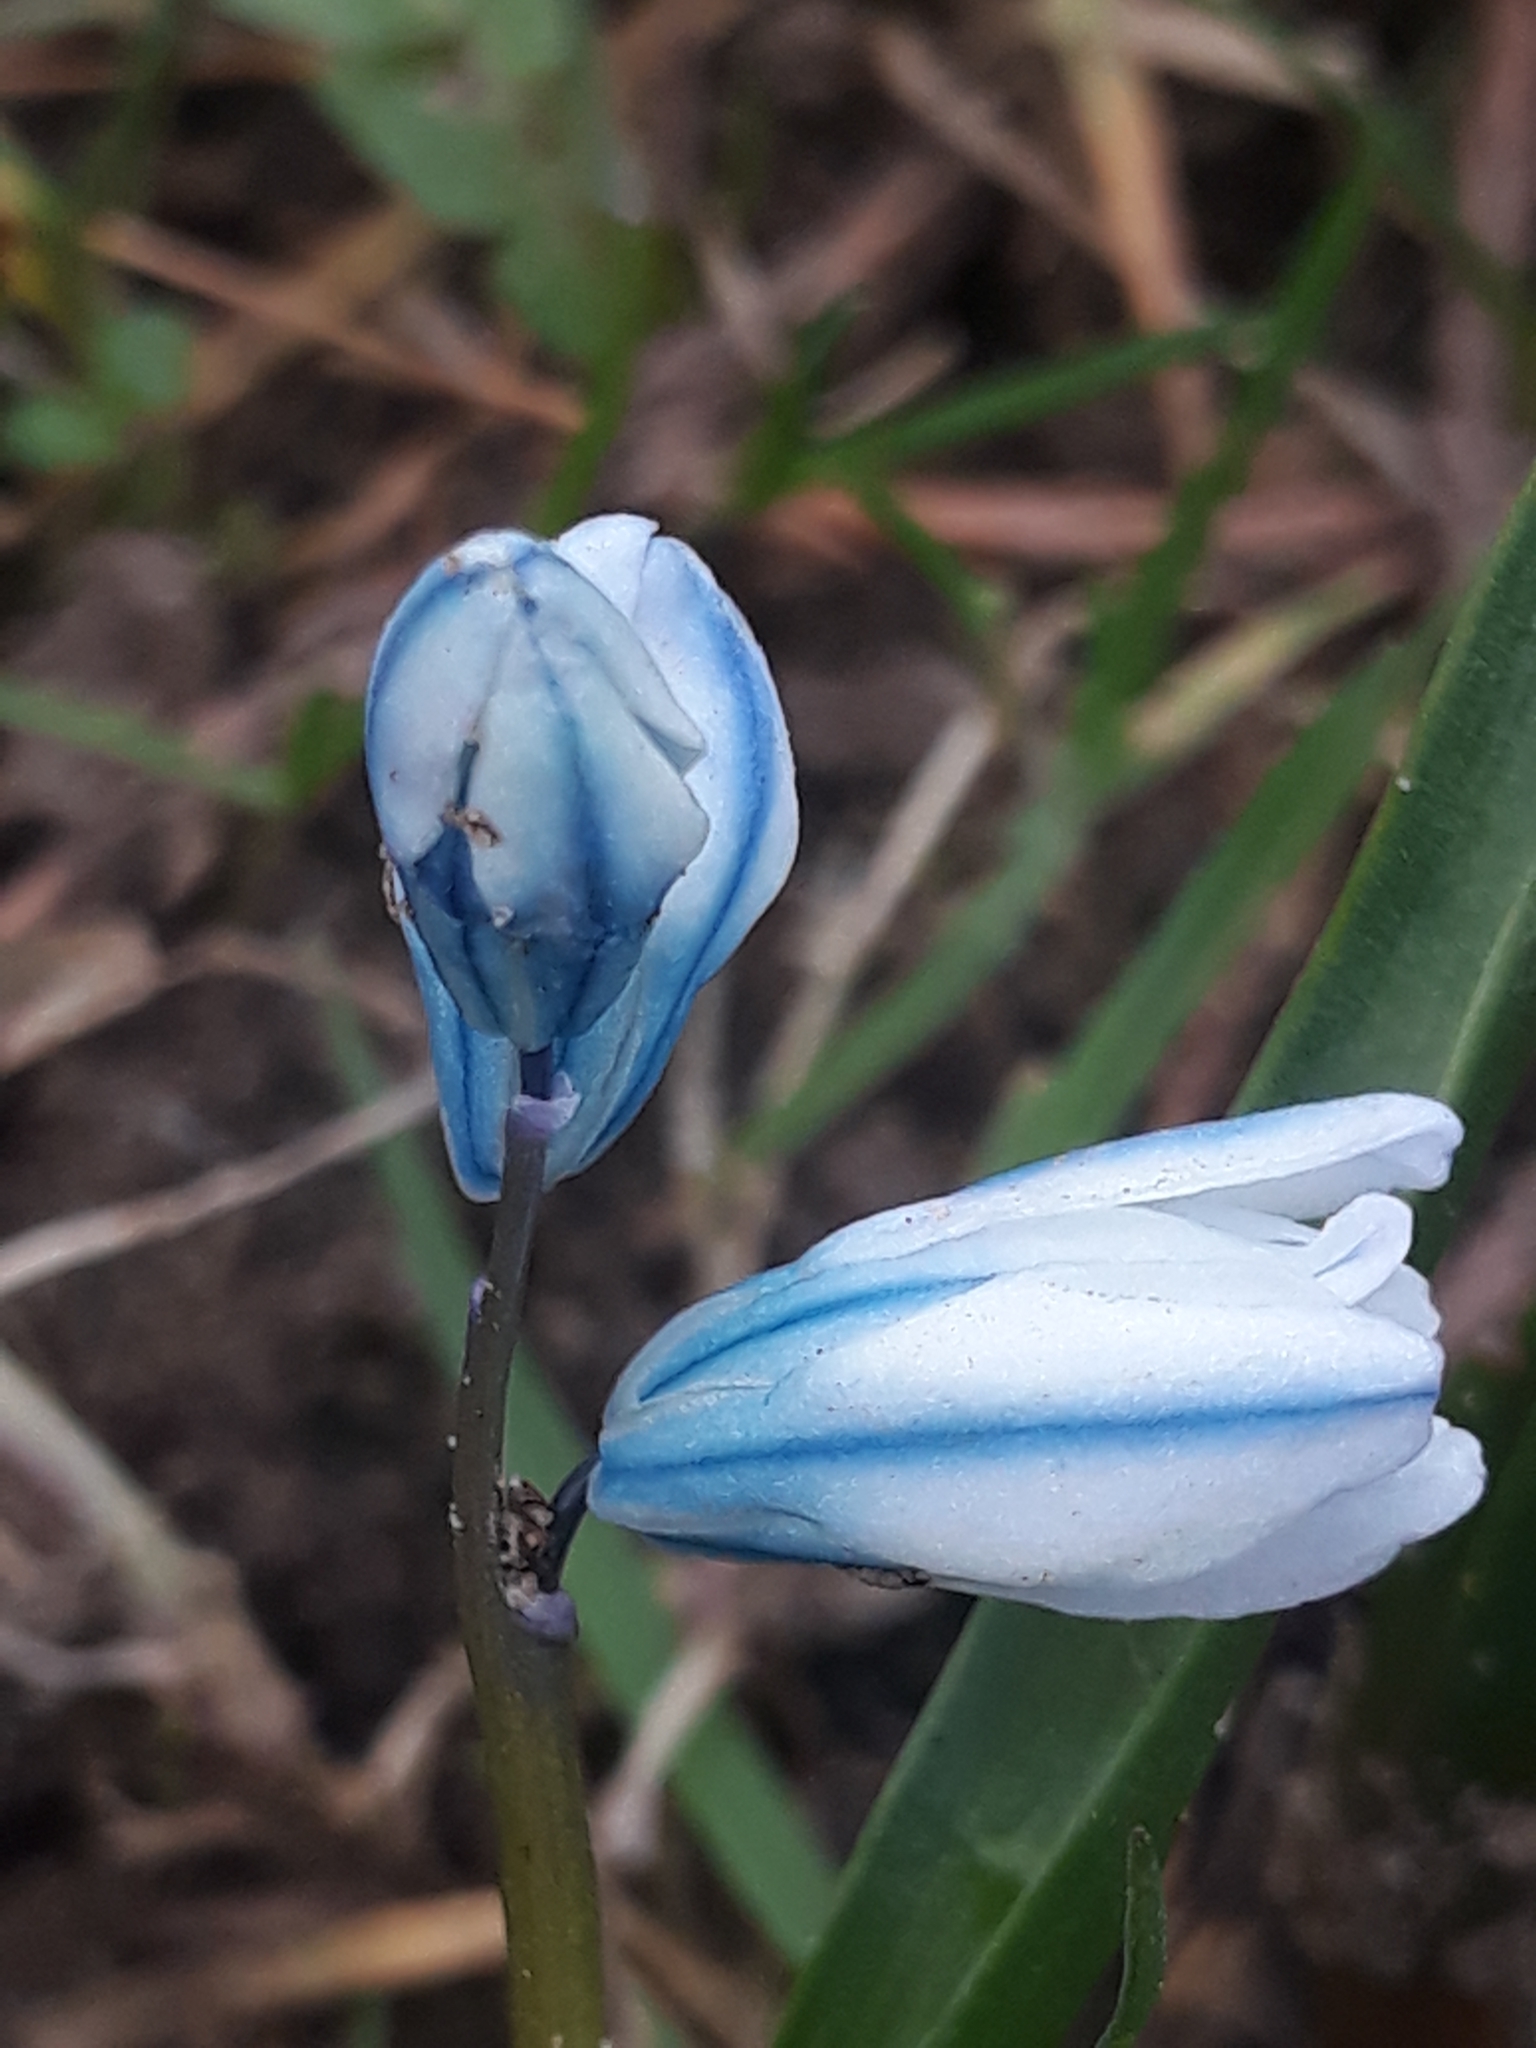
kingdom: Plantae
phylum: Tracheophyta
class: Liliopsida
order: Asparagales
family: Asparagaceae
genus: Puschkinia
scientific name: Puschkinia scilloides
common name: Striped squill
